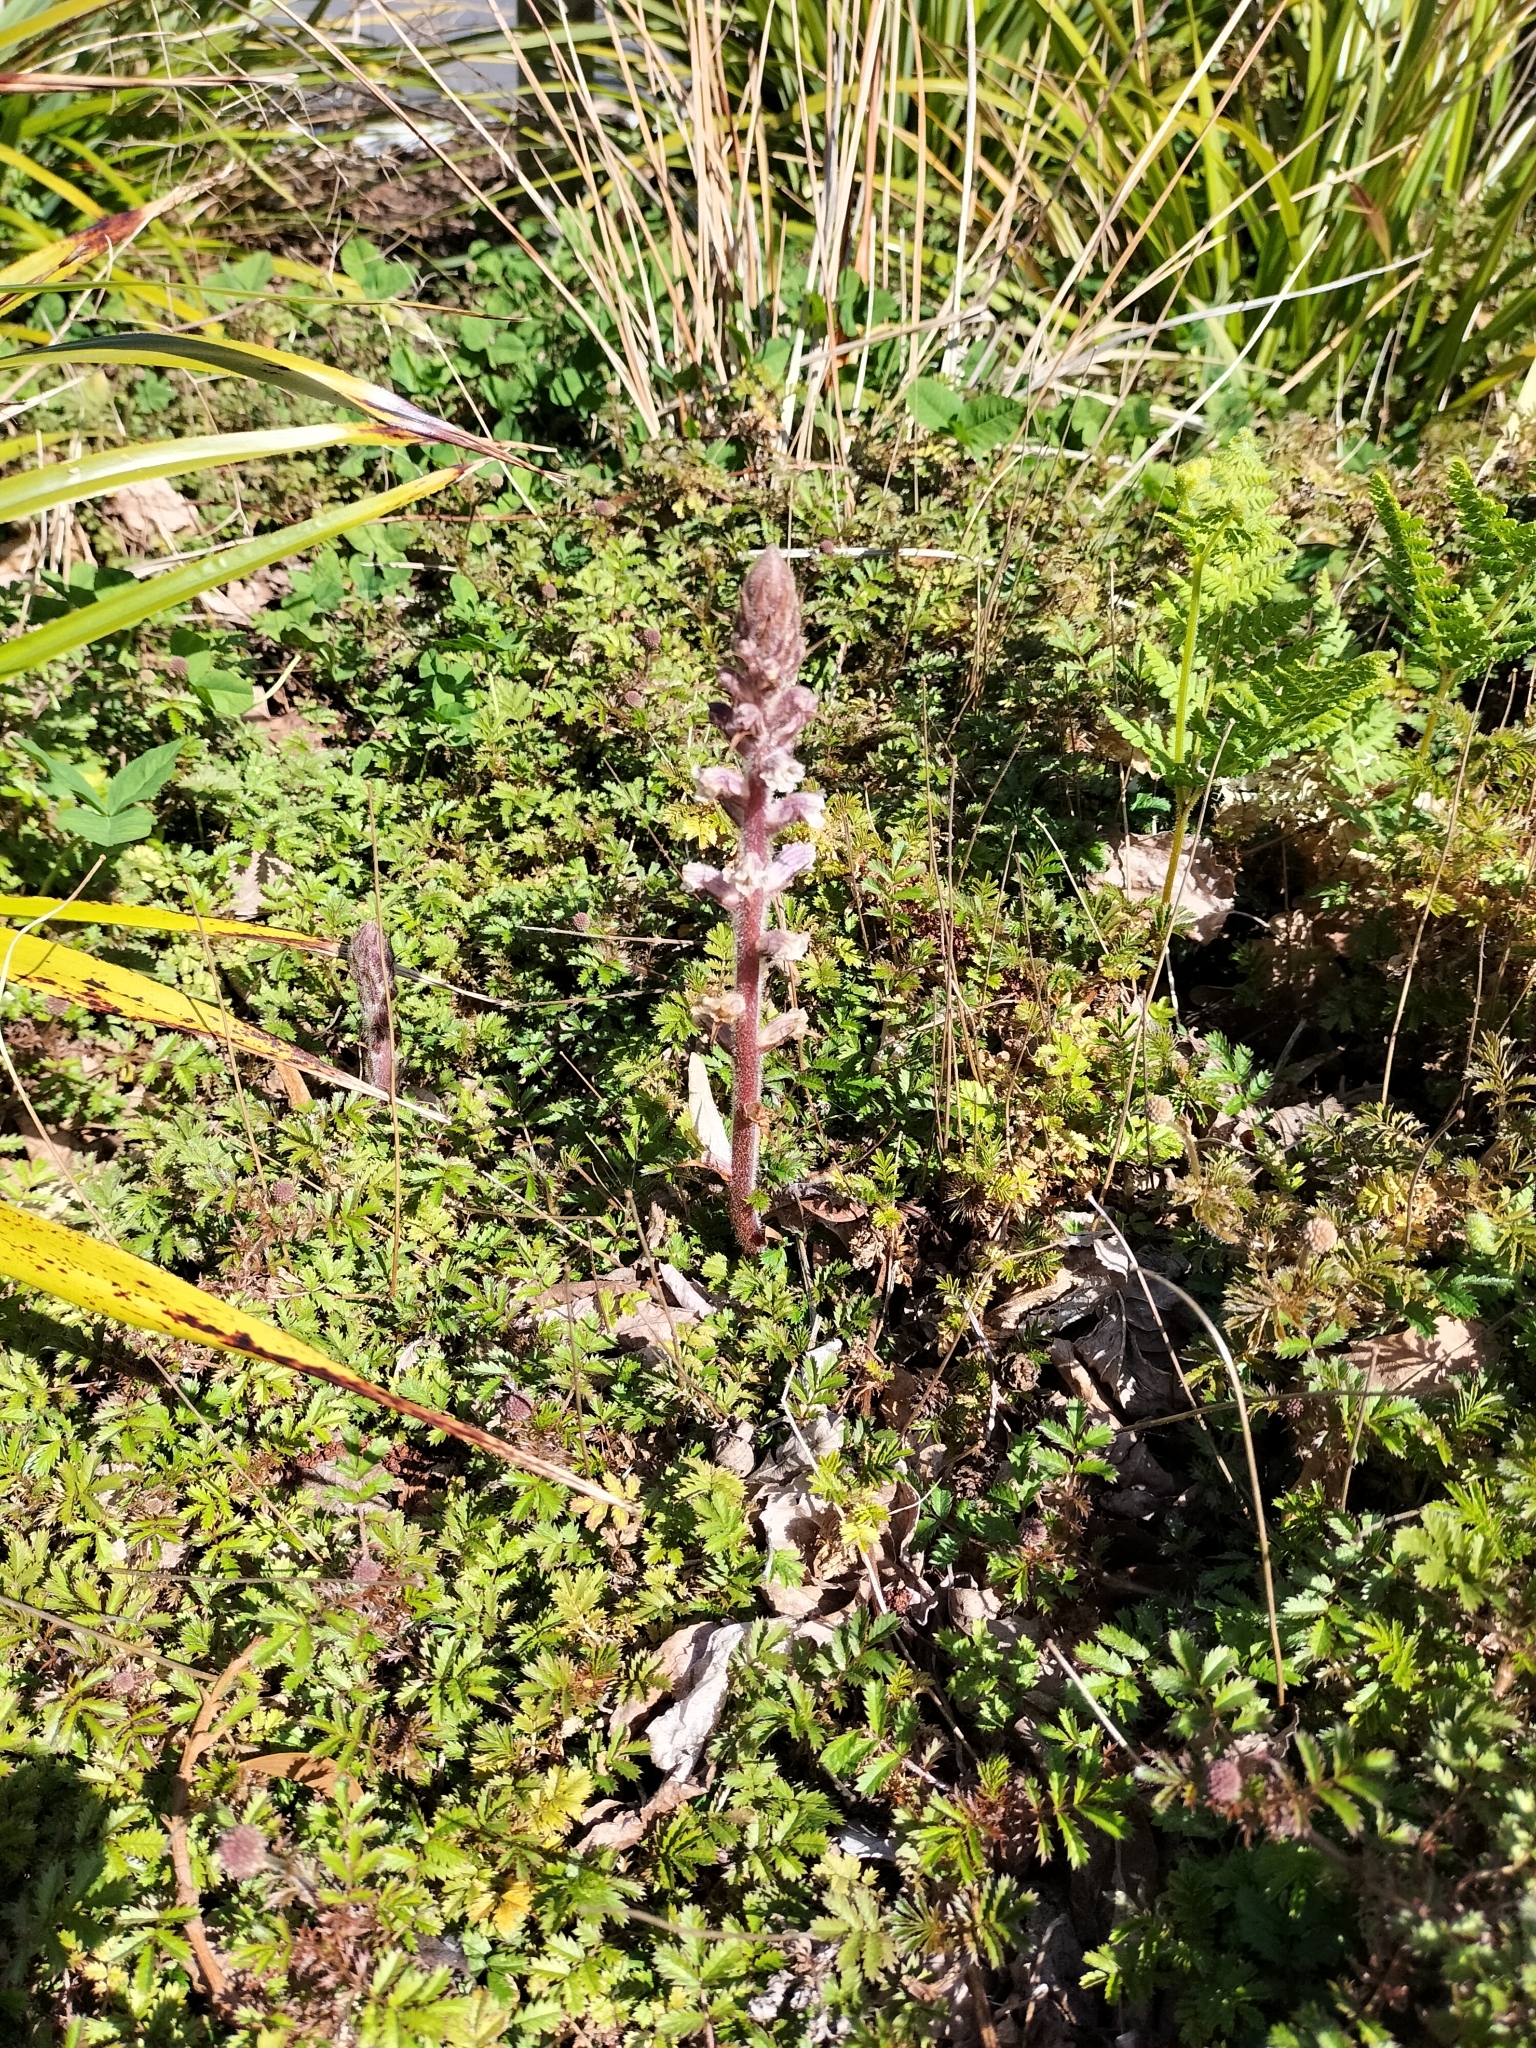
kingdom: Plantae
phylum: Tracheophyta
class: Magnoliopsida
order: Lamiales
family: Orobanchaceae
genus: Orobanche
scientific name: Orobanche minor
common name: Common broomrape
